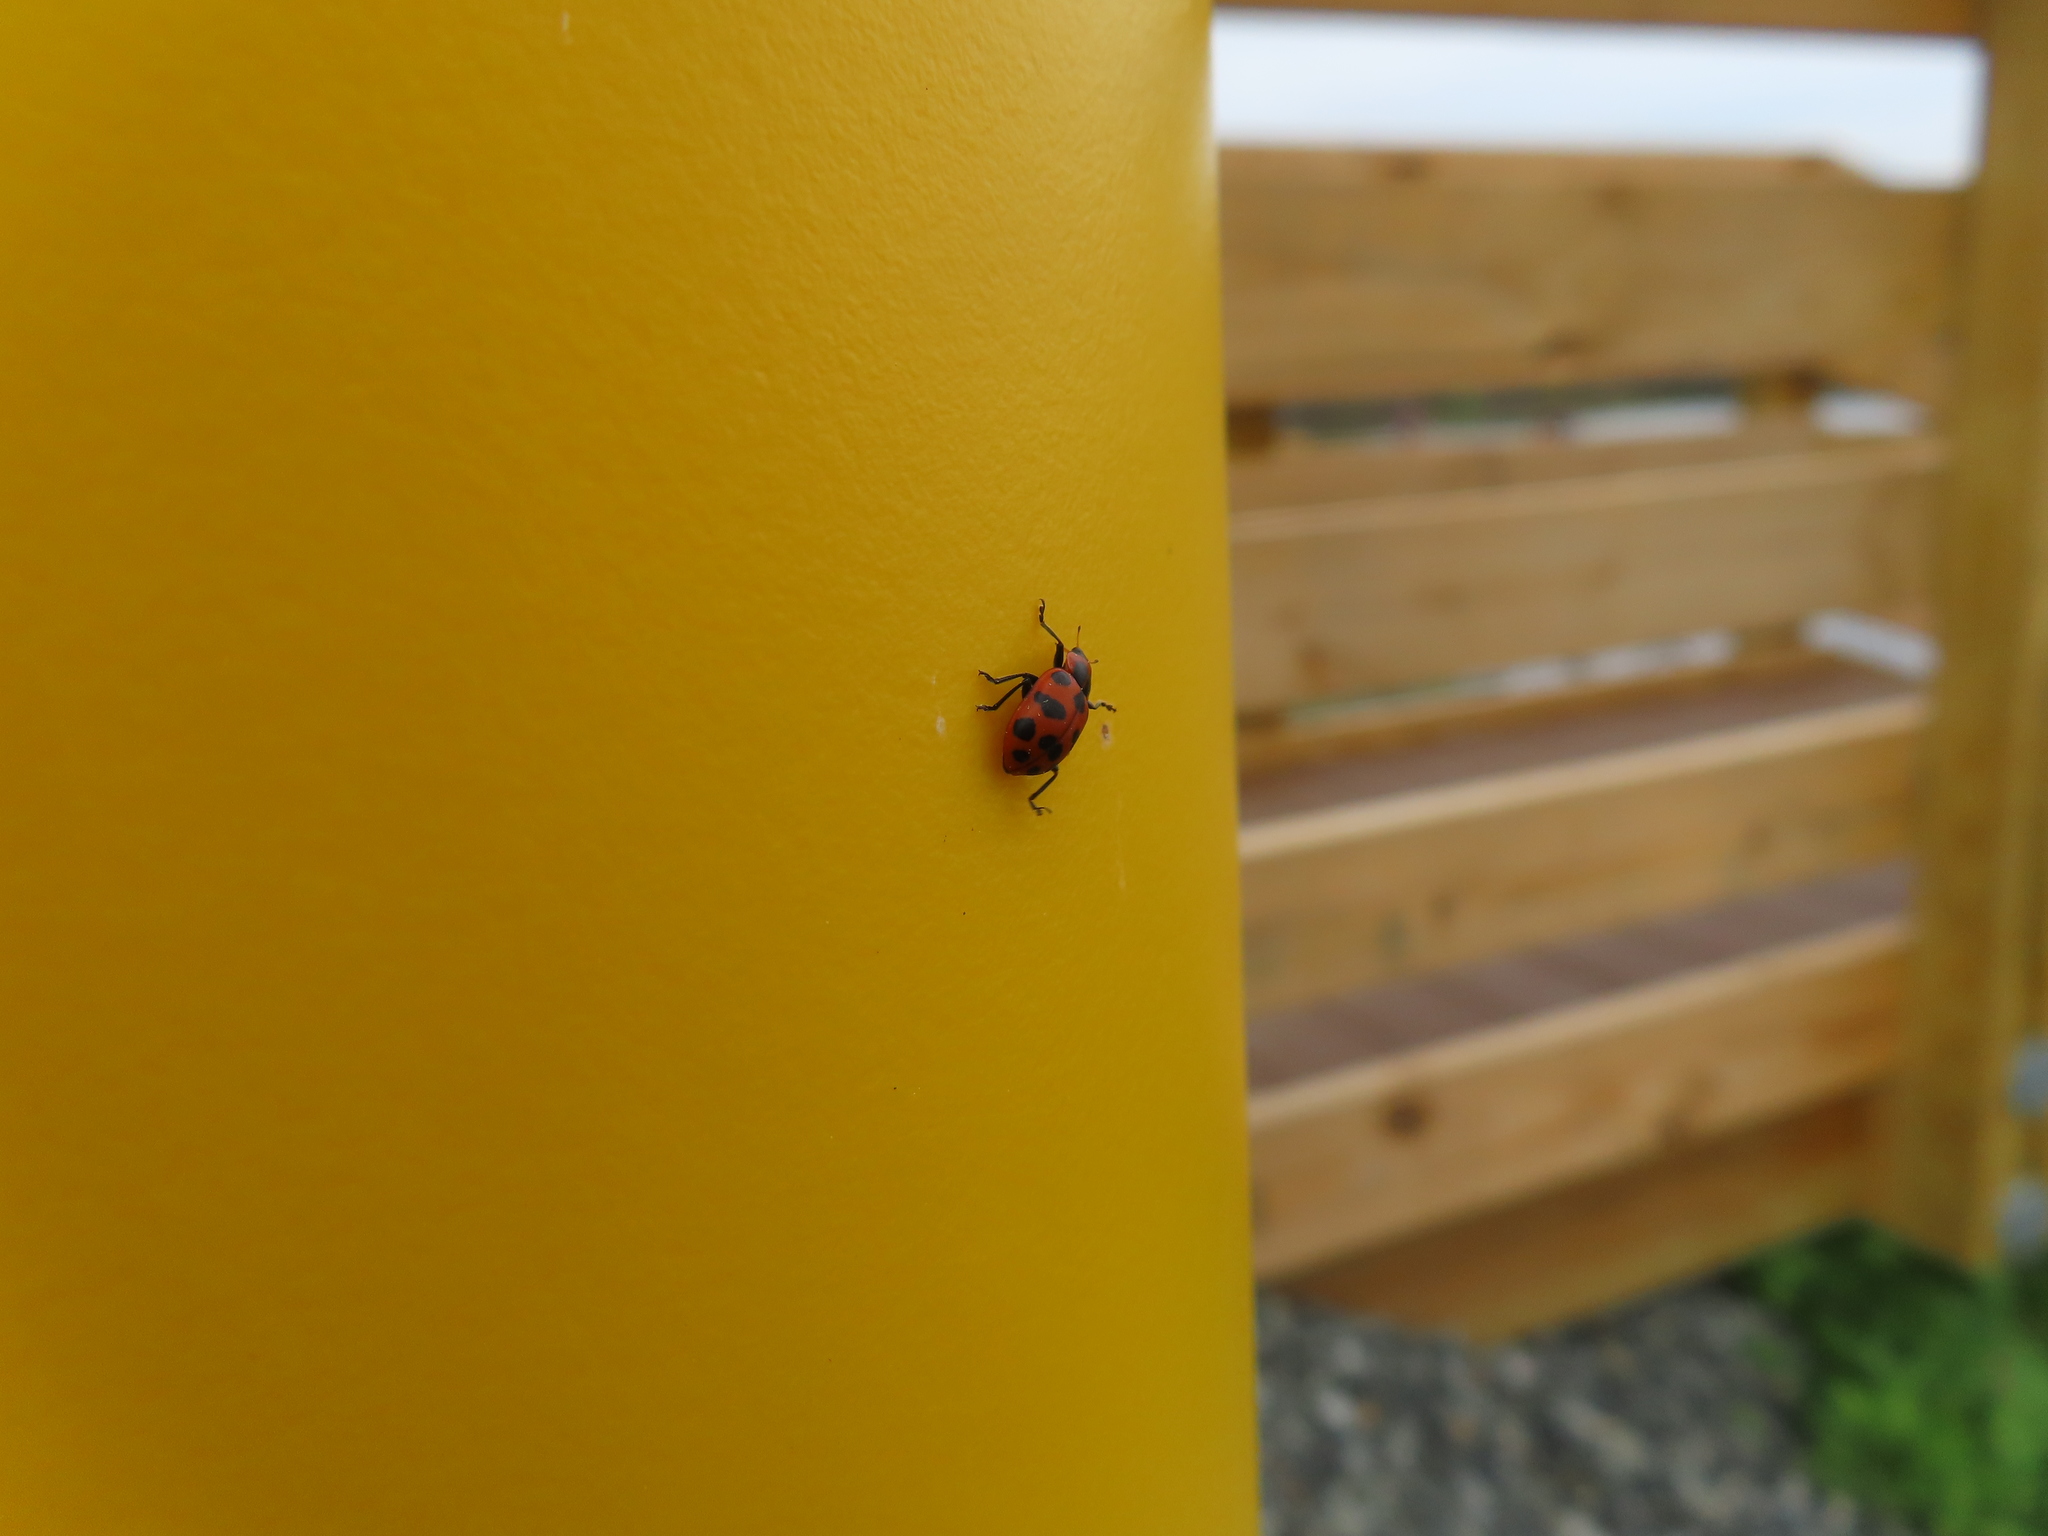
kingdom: Animalia
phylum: Arthropoda
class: Insecta
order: Coleoptera
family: Coccinellidae
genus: Coleomegilla
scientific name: Coleomegilla maculata
